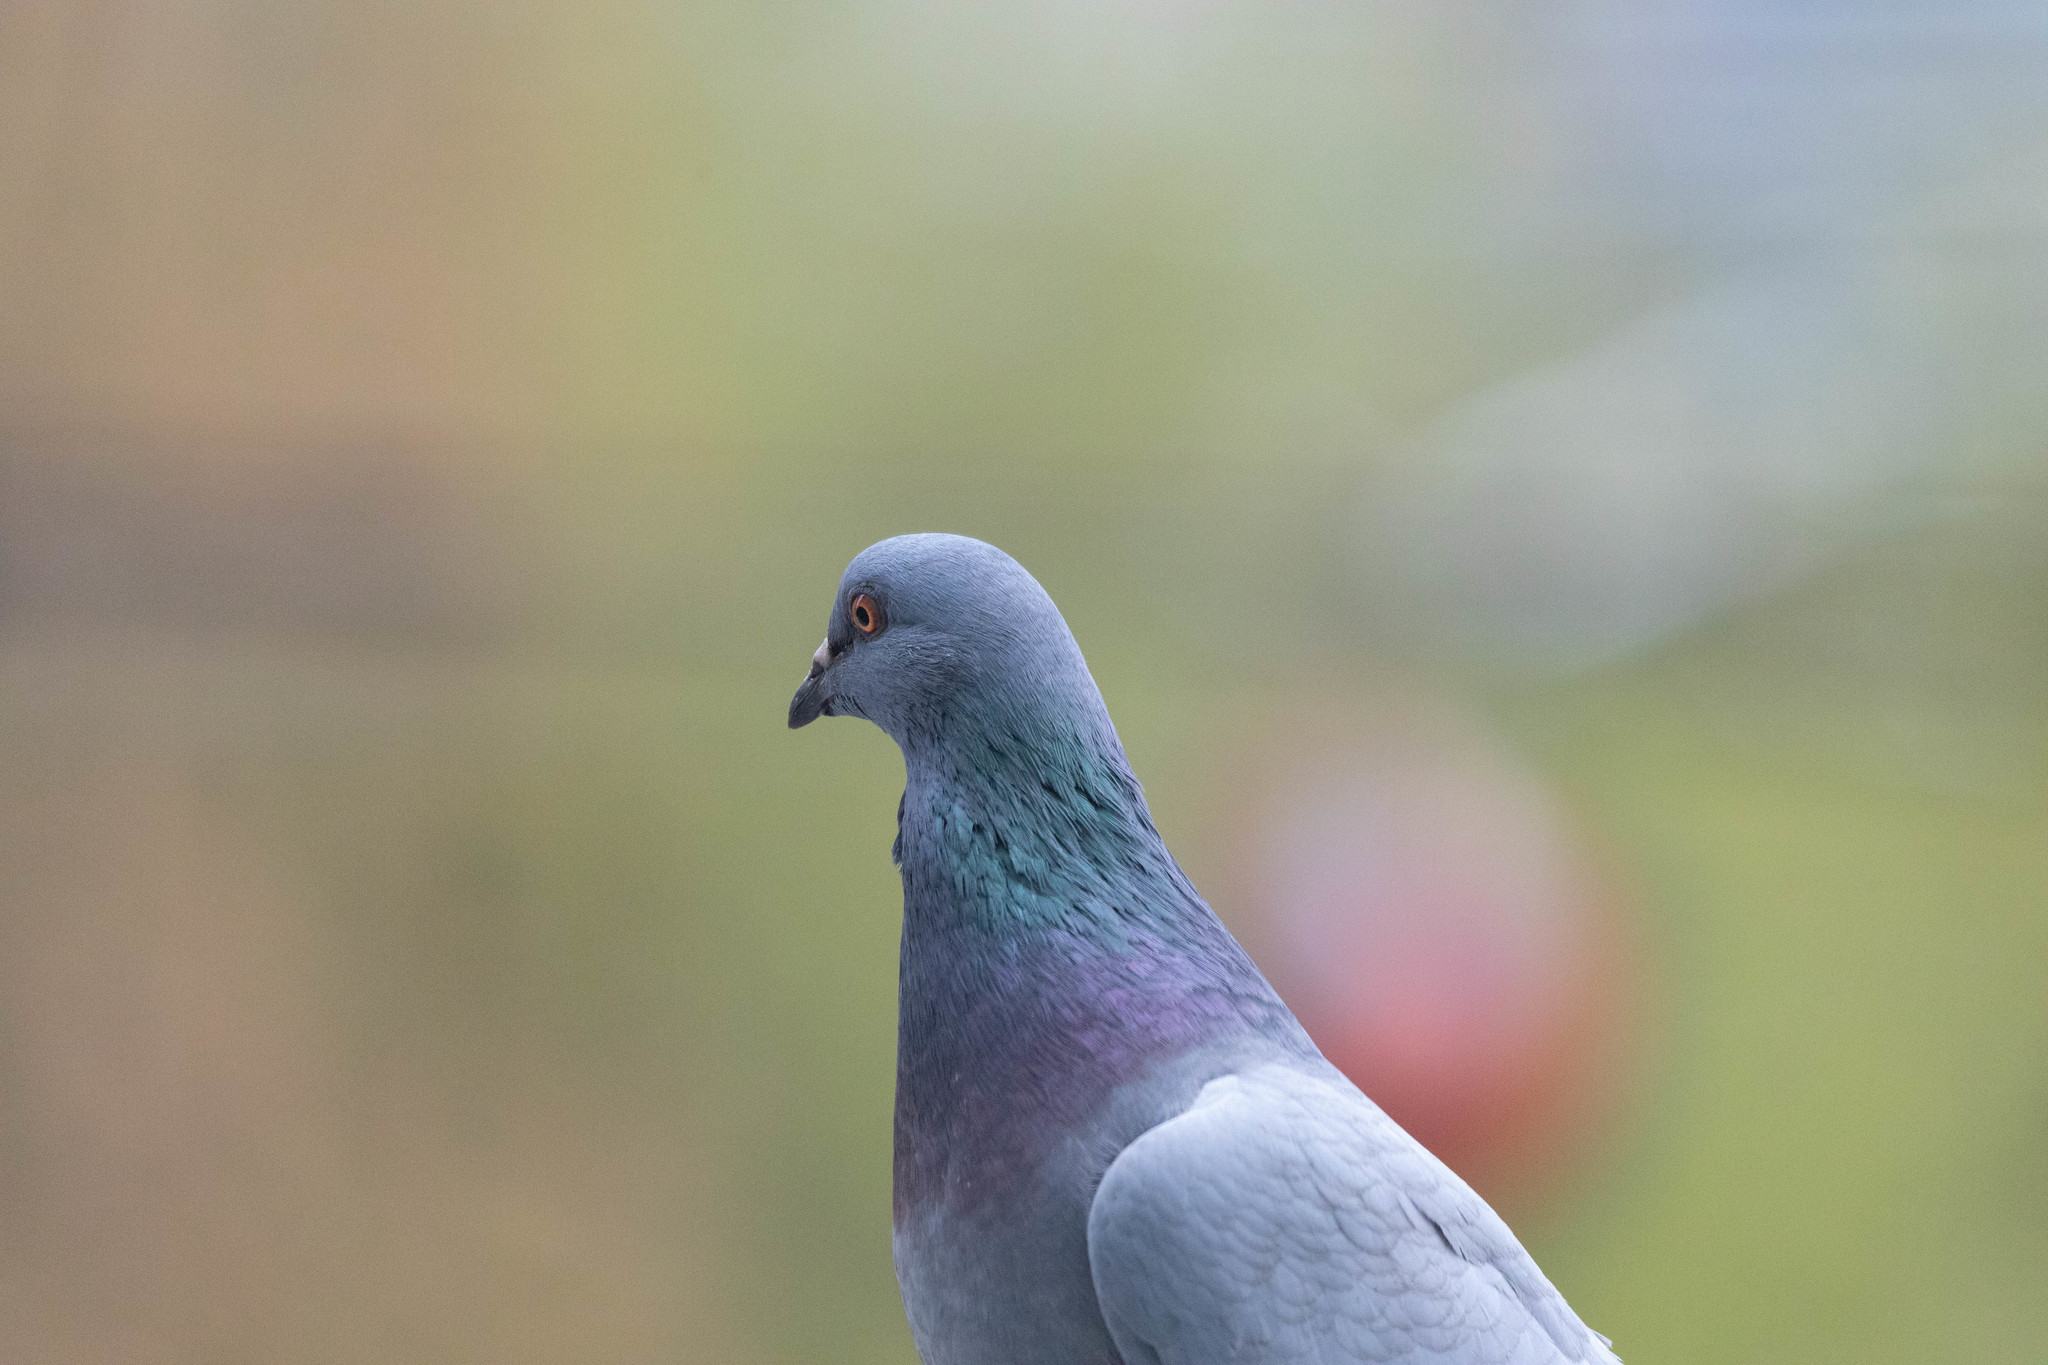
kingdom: Animalia
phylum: Chordata
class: Aves
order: Columbiformes
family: Columbidae
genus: Columba
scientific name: Columba livia
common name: Rock pigeon
